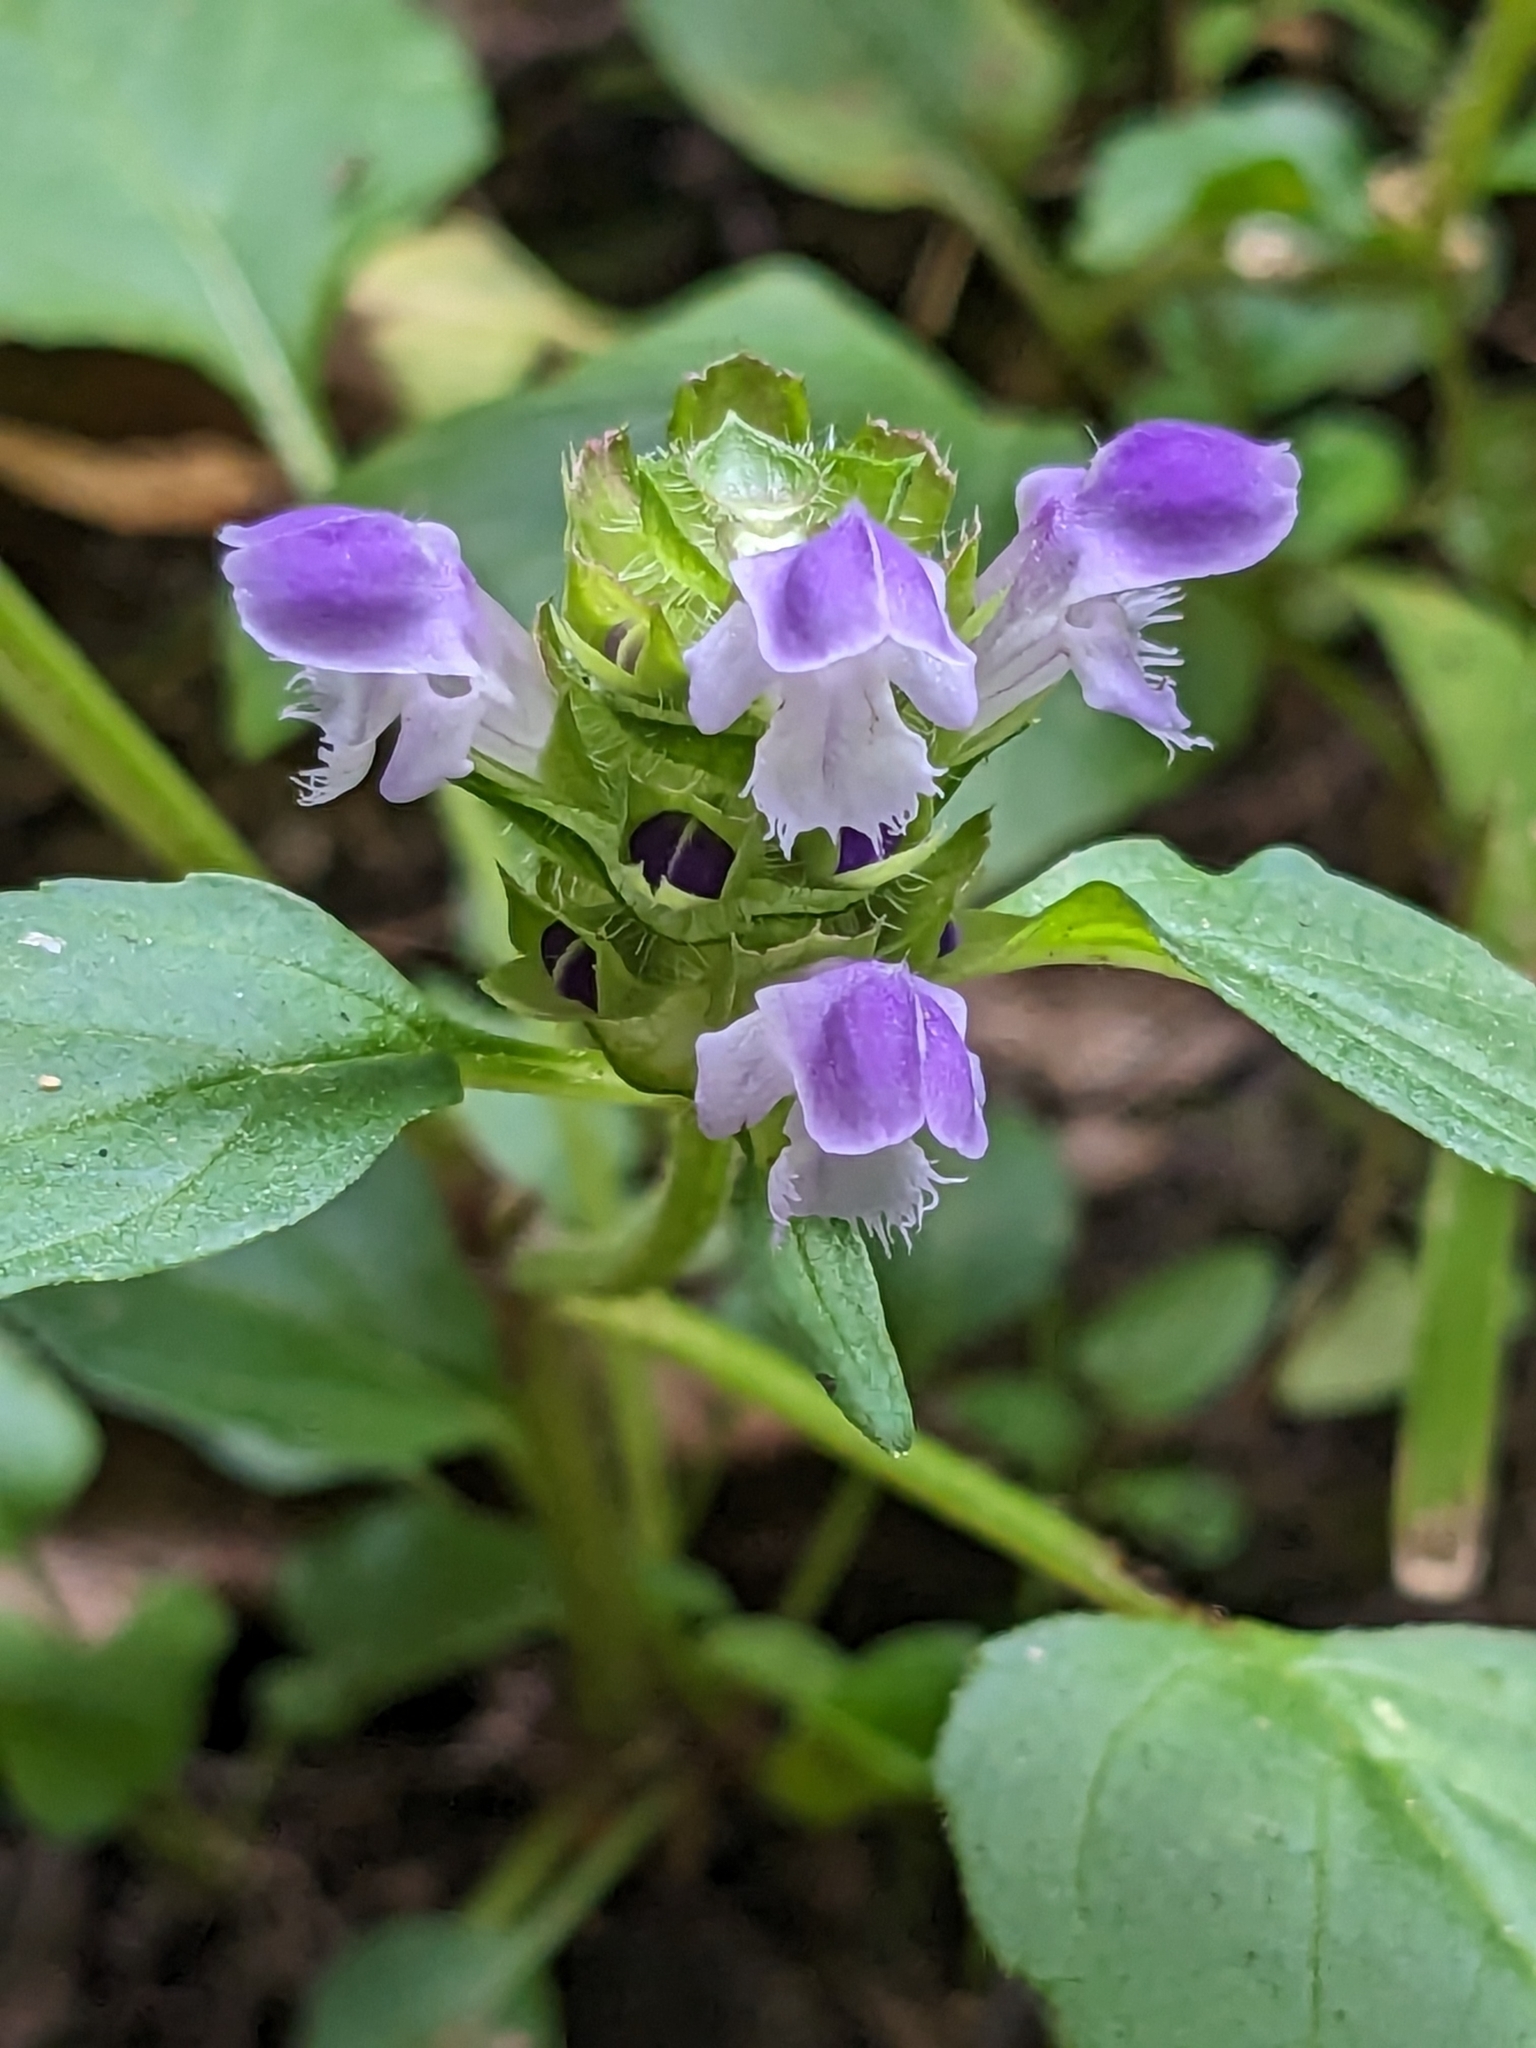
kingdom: Plantae
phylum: Tracheophyta
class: Magnoliopsida
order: Lamiales
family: Lamiaceae
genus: Prunella
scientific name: Prunella vulgaris
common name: Heal-all
